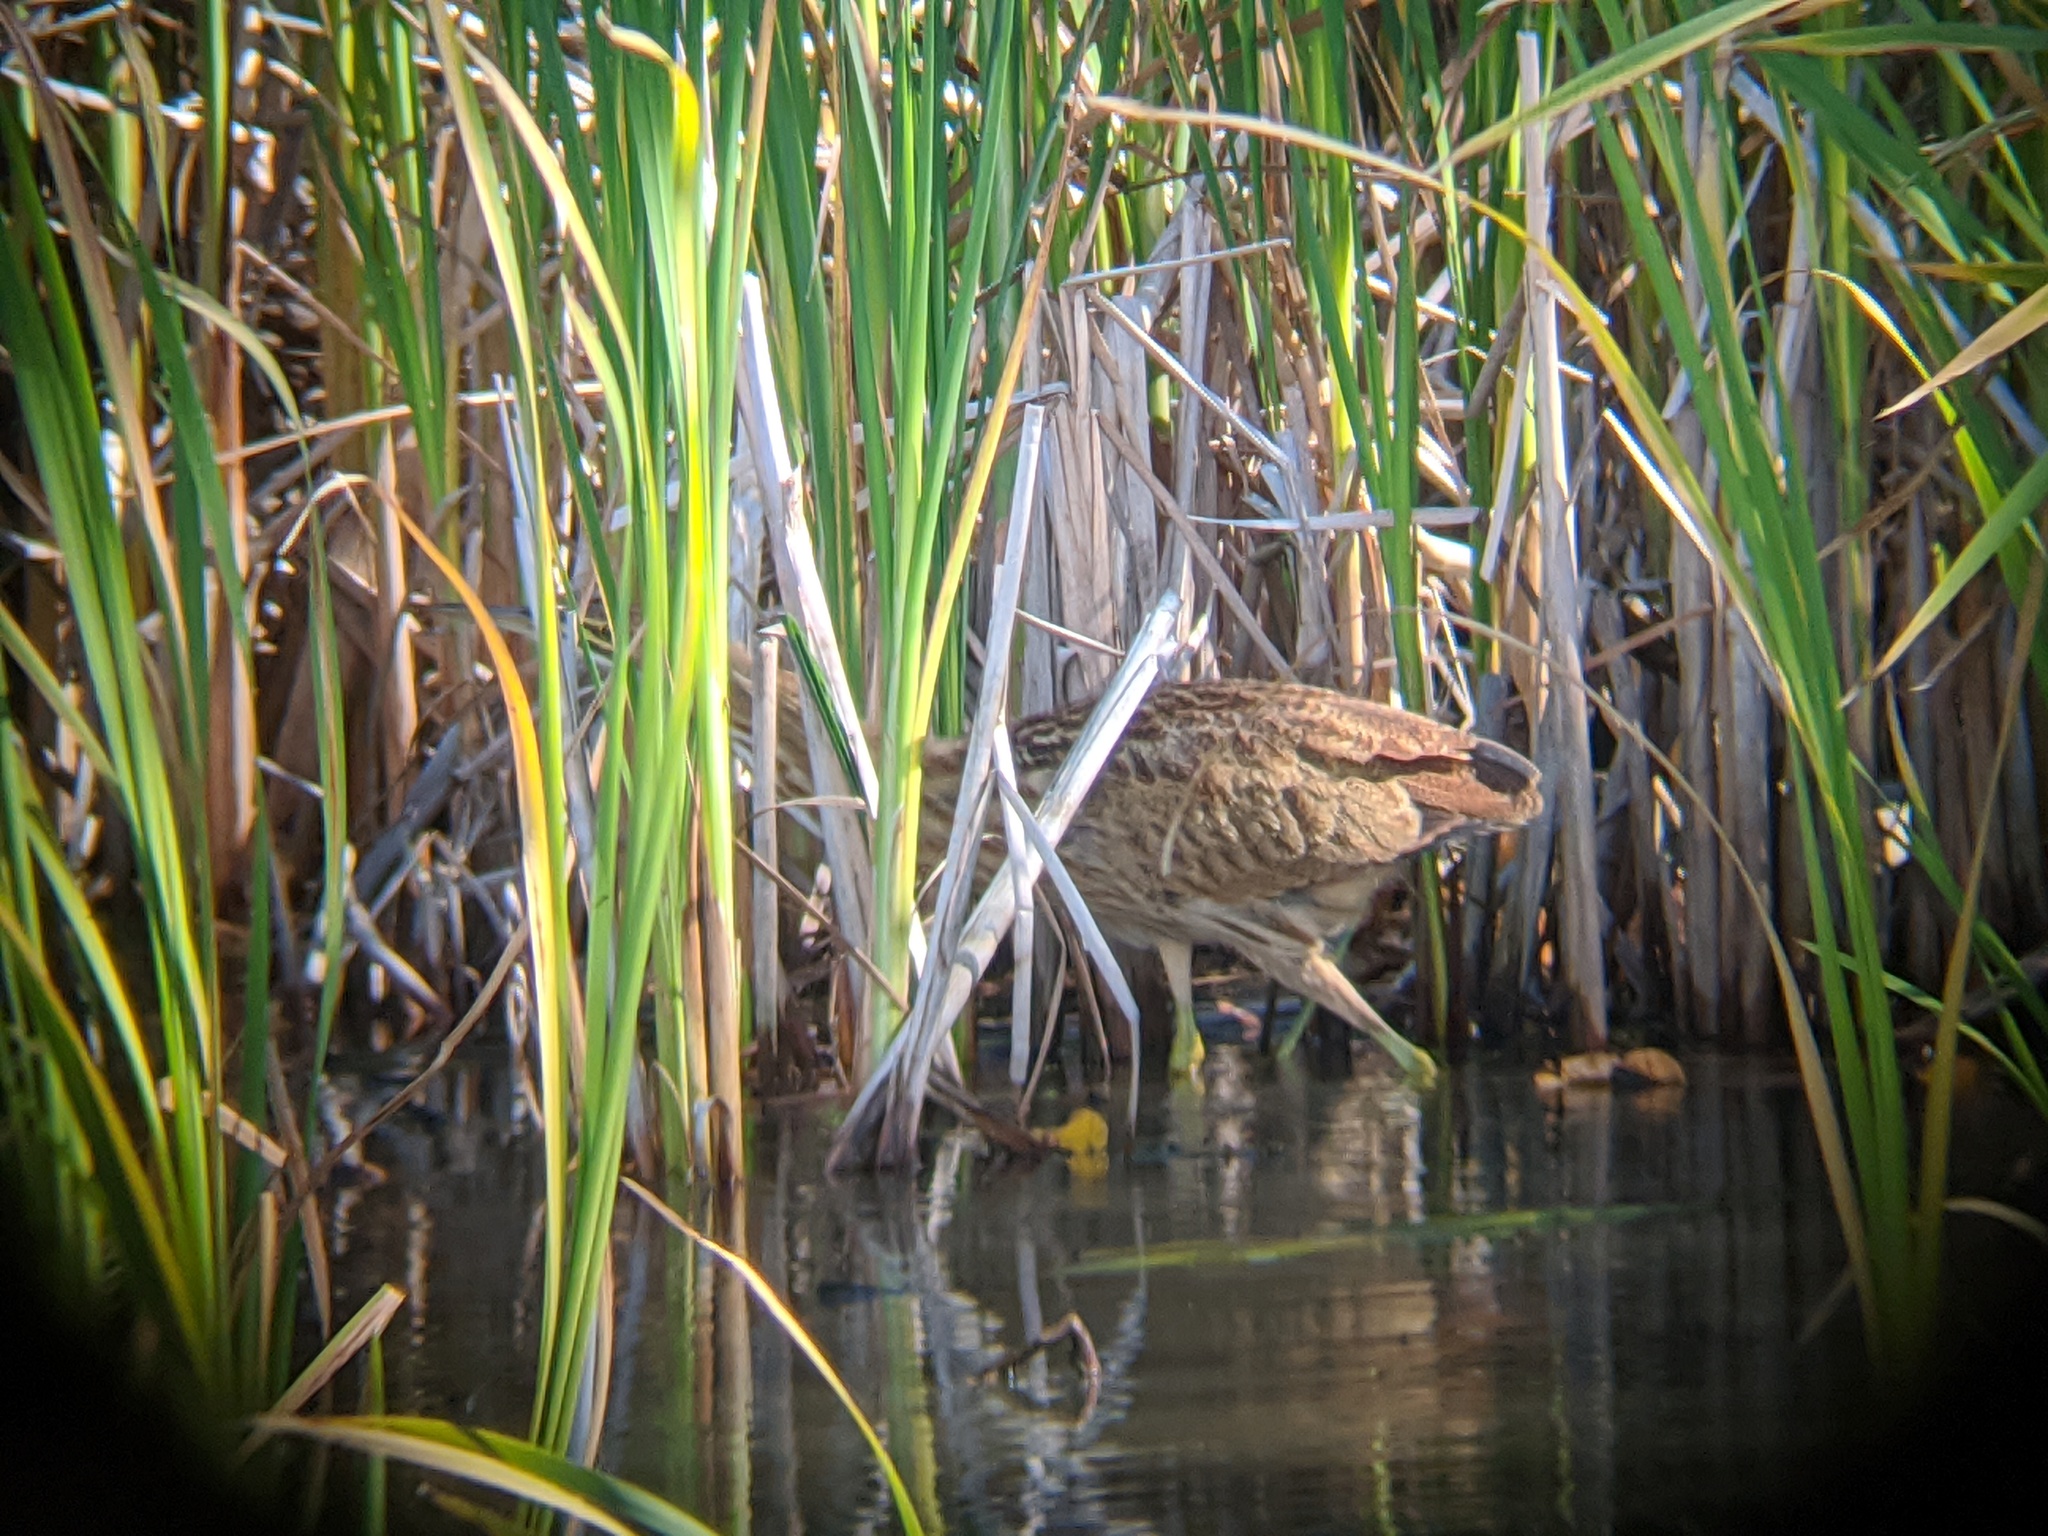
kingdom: Animalia
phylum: Chordata
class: Aves
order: Pelecaniformes
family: Ardeidae
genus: Botaurus
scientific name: Botaurus lentiginosus
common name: American bittern
